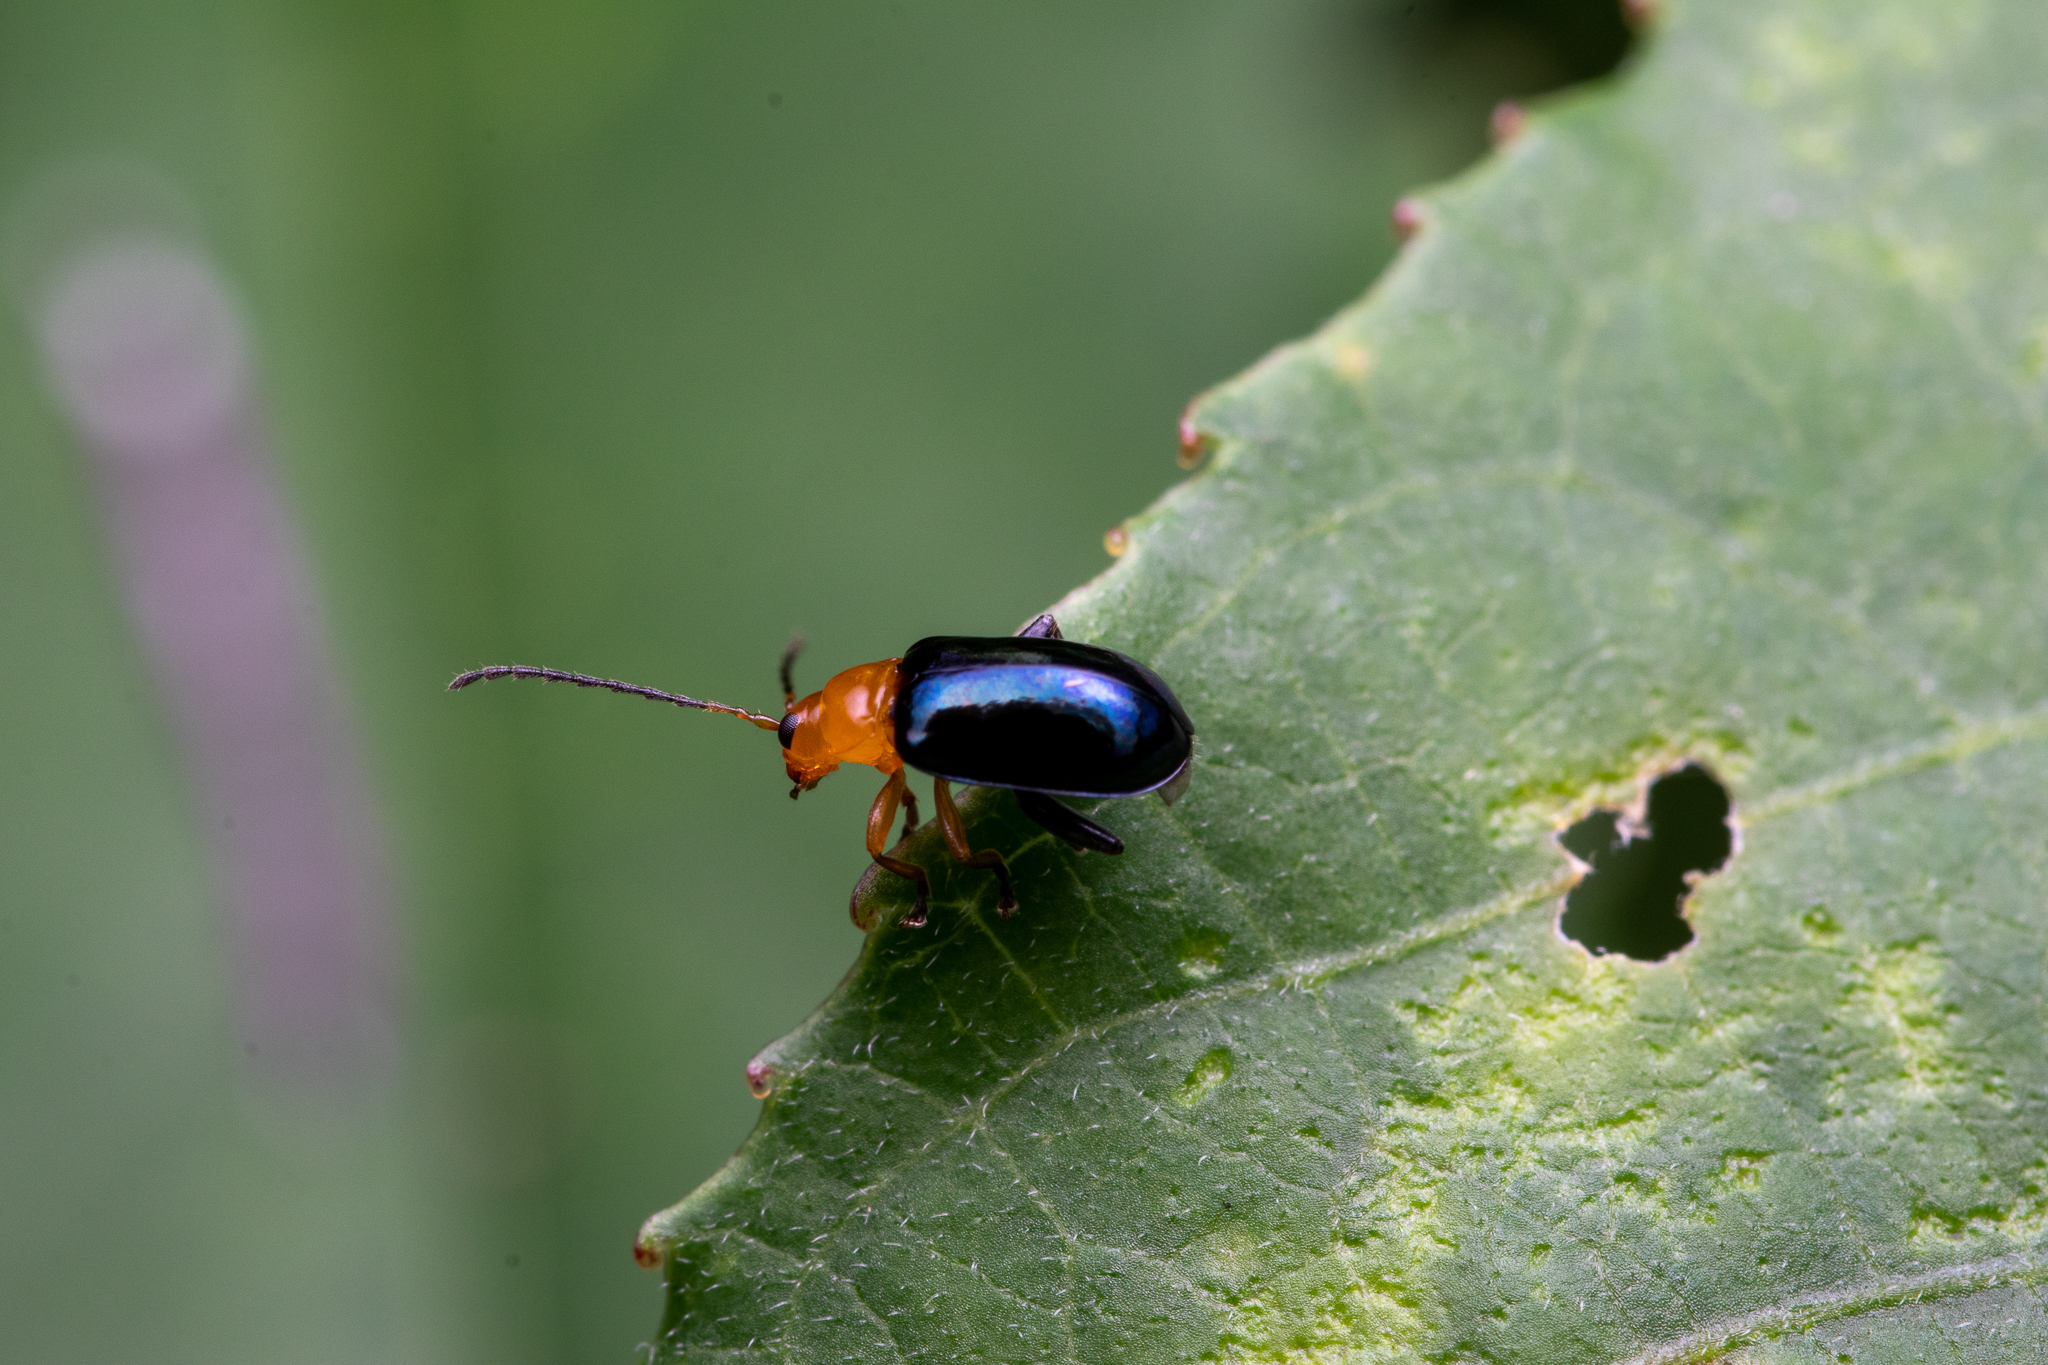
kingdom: Animalia
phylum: Arthropoda
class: Insecta
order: Coleoptera
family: Chrysomelidae
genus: Parchicola
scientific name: Parchicola iris
